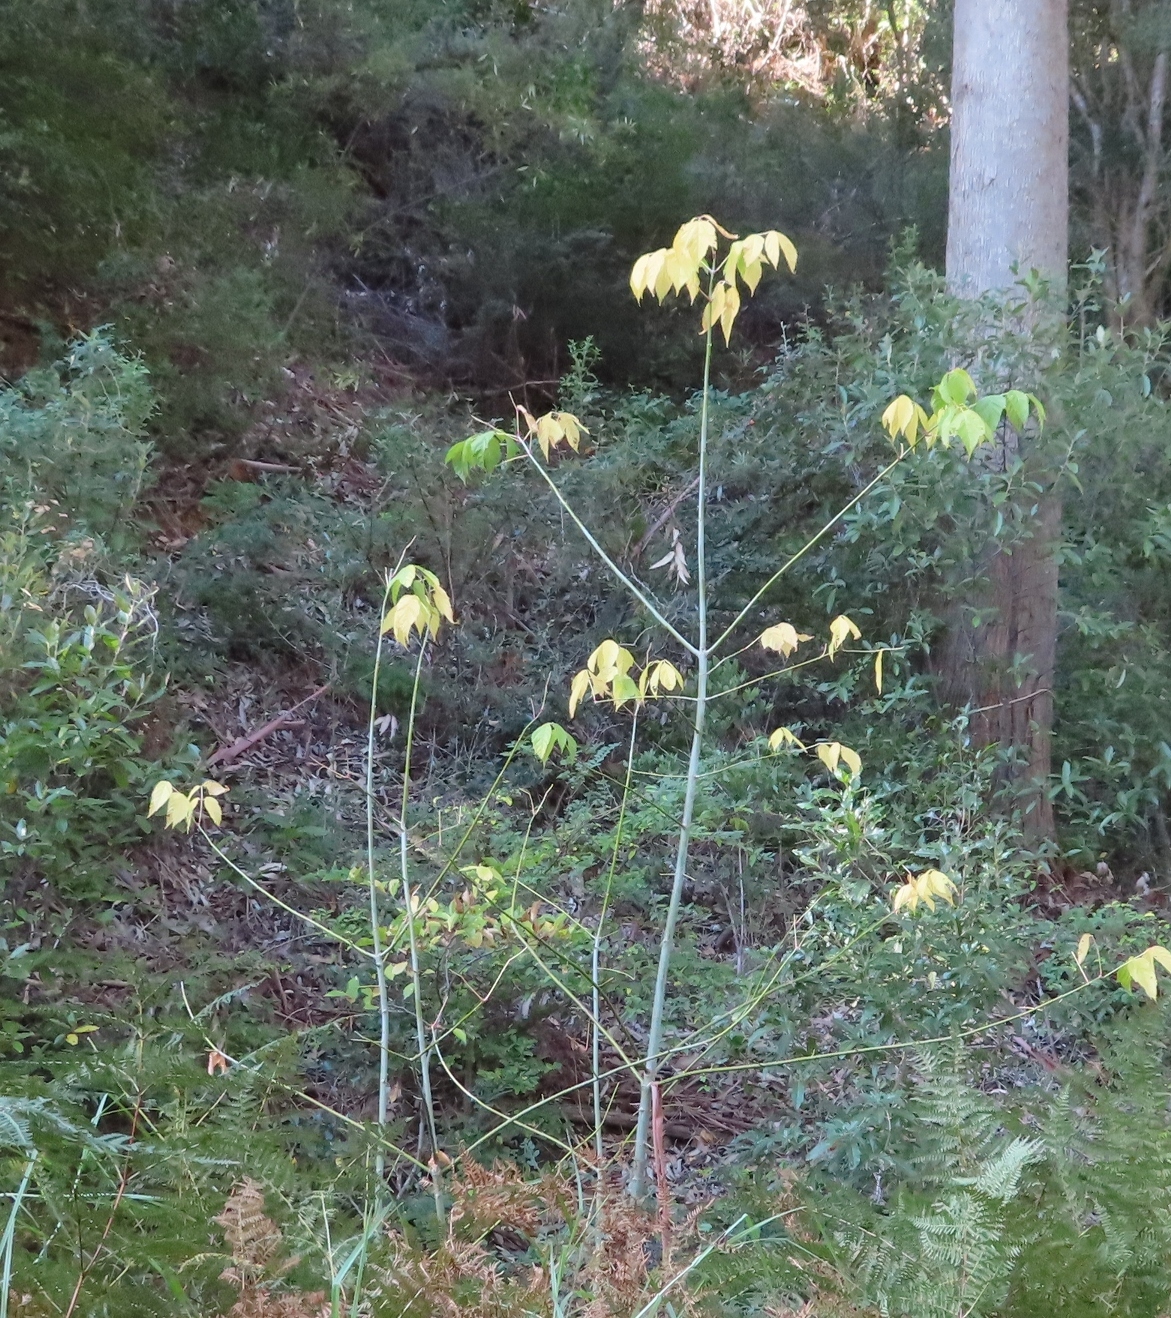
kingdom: Plantae
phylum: Tracheophyta
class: Magnoliopsida
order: Sapindales
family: Sapindaceae
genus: Acer
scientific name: Acer negundo
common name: Ashleaf maple
